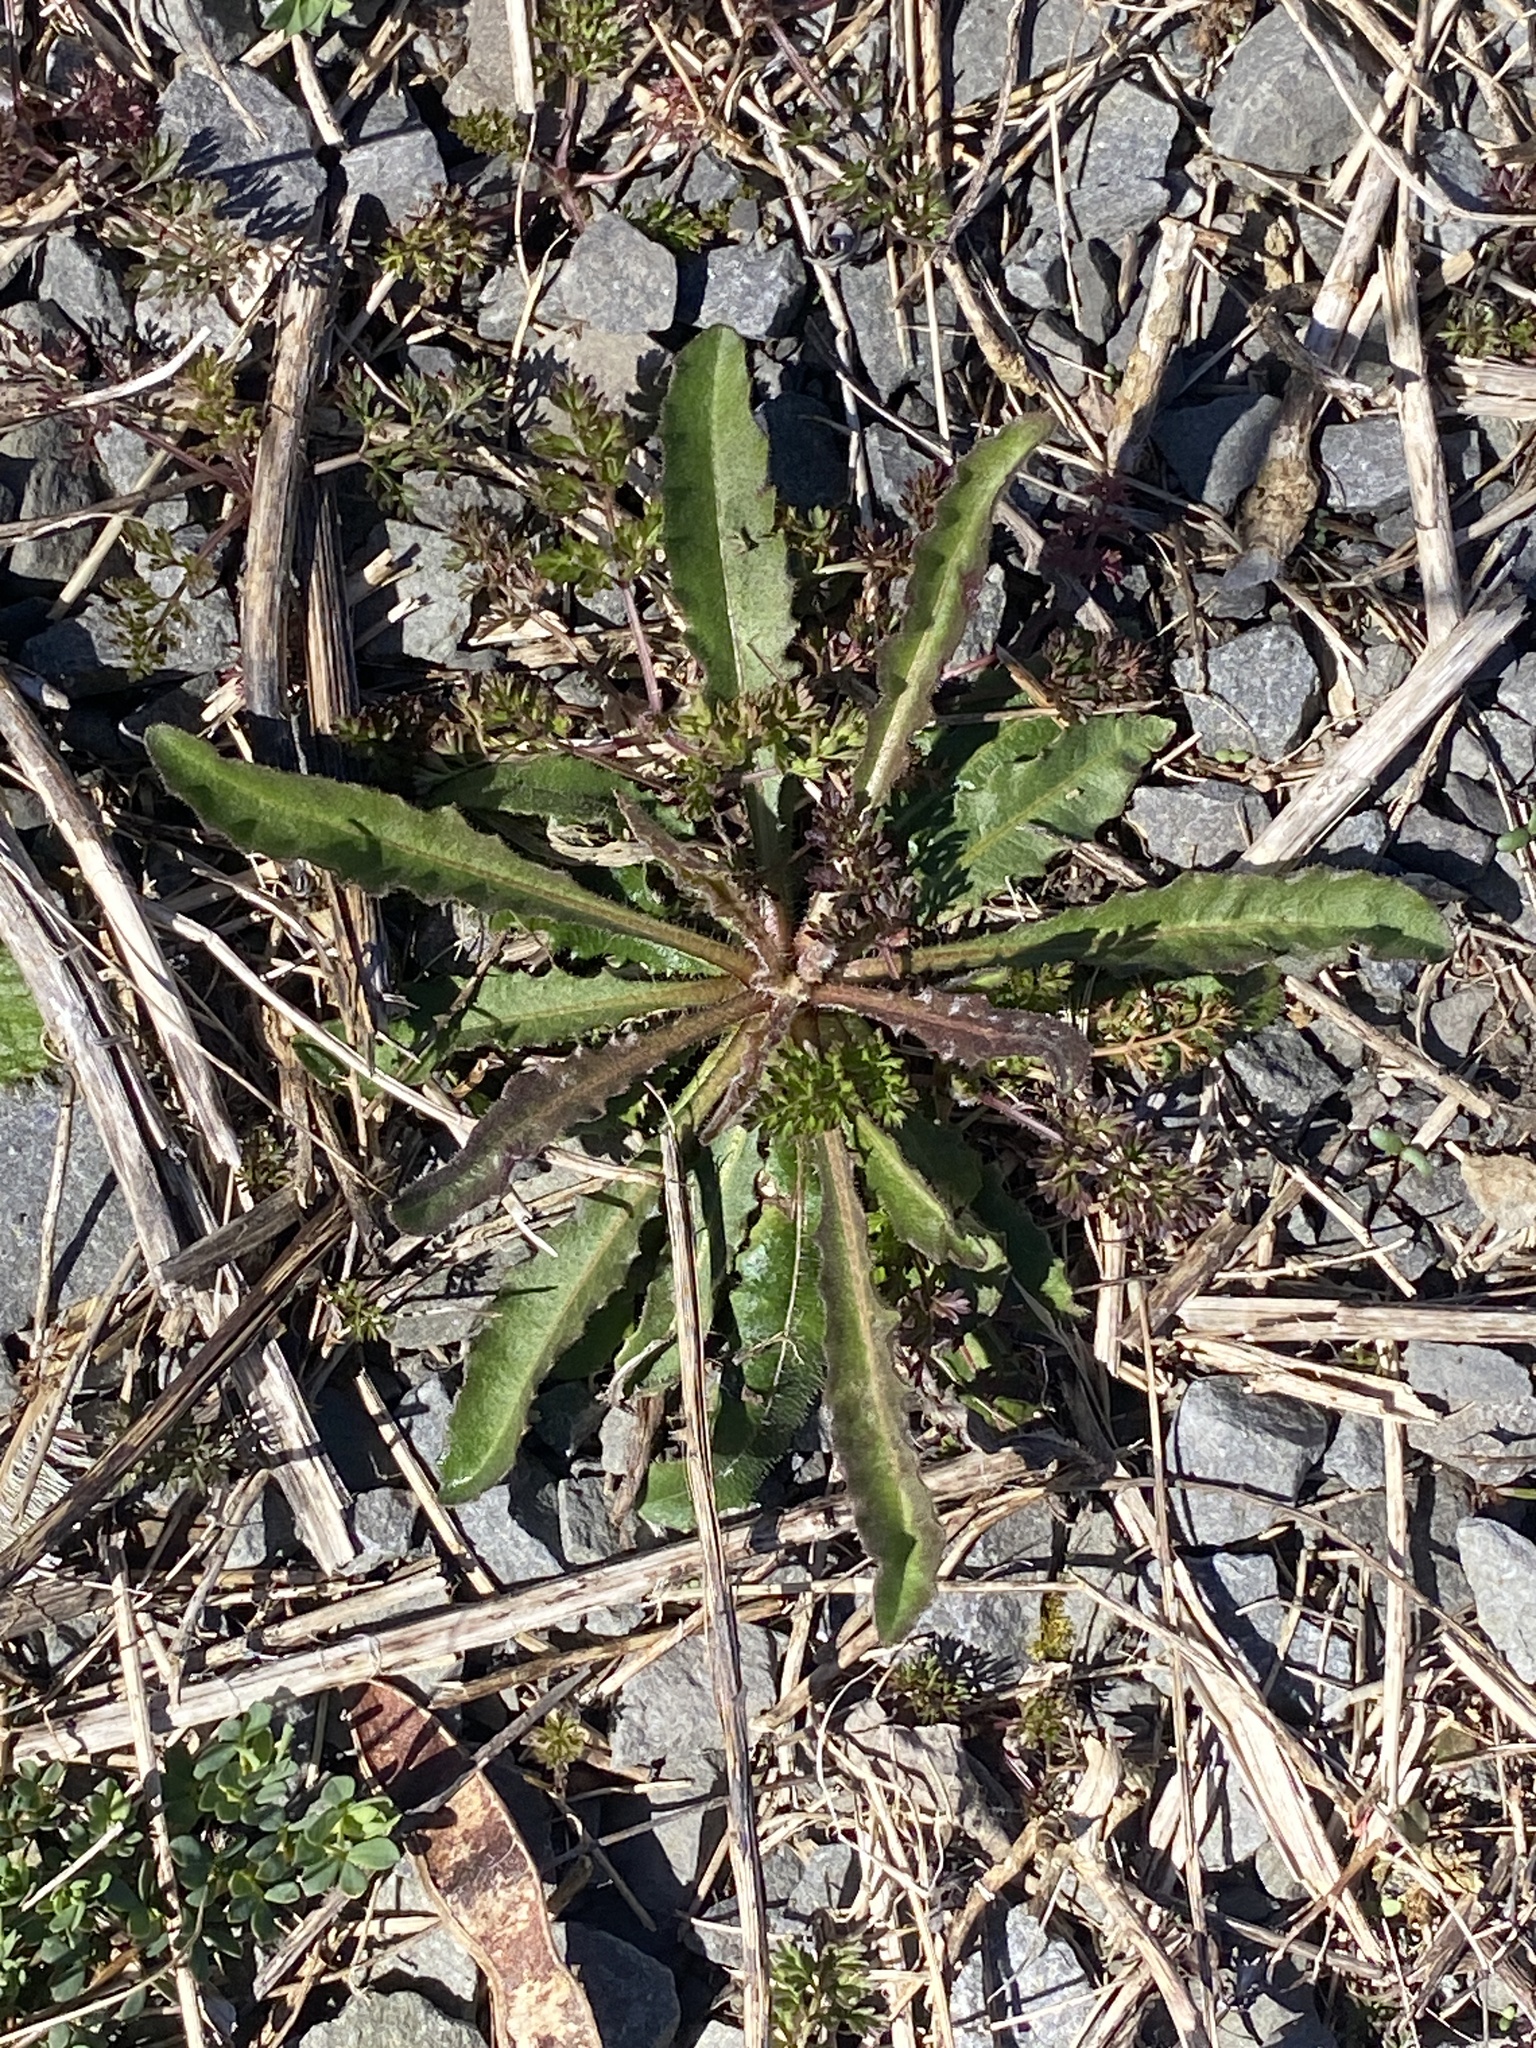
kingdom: Plantae
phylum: Tracheophyta
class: Magnoliopsida
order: Asterales
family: Asteraceae
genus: Picris
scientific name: Picris hieracioides
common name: Hawkweed oxtongue
